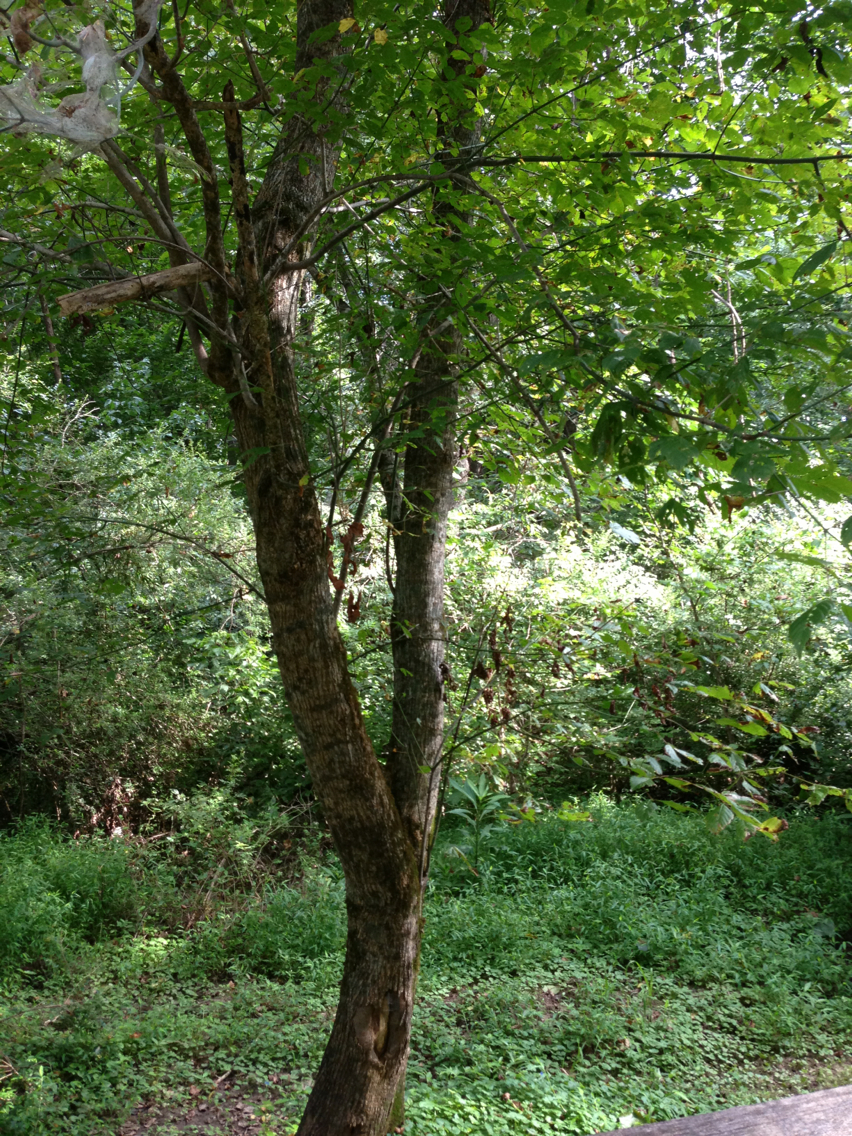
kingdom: Plantae
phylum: Tracheophyta
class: Magnoliopsida
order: Sapindales
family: Sapindaceae
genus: Acer
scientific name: Acer negundo
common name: Ashleaf maple
